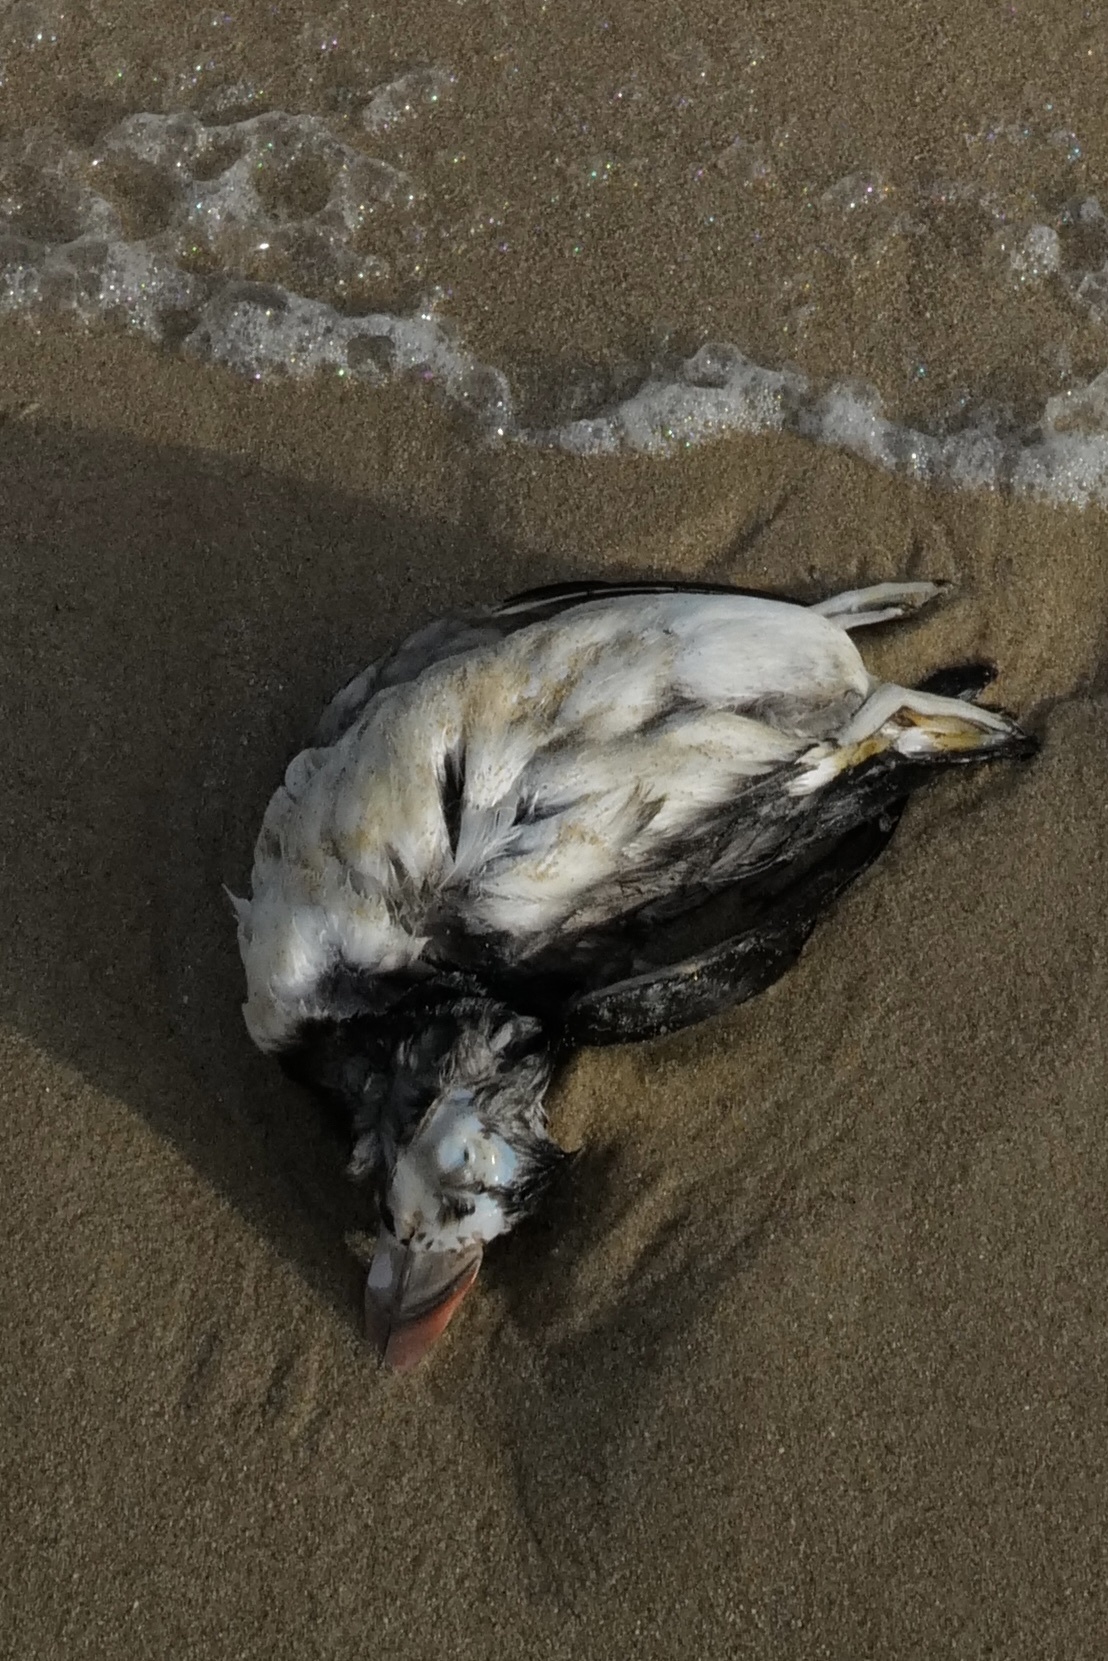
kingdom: Animalia
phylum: Chordata
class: Aves
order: Charadriiformes
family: Alcidae
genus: Fratercula
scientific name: Fratercula arctica
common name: Atlantic puffin
